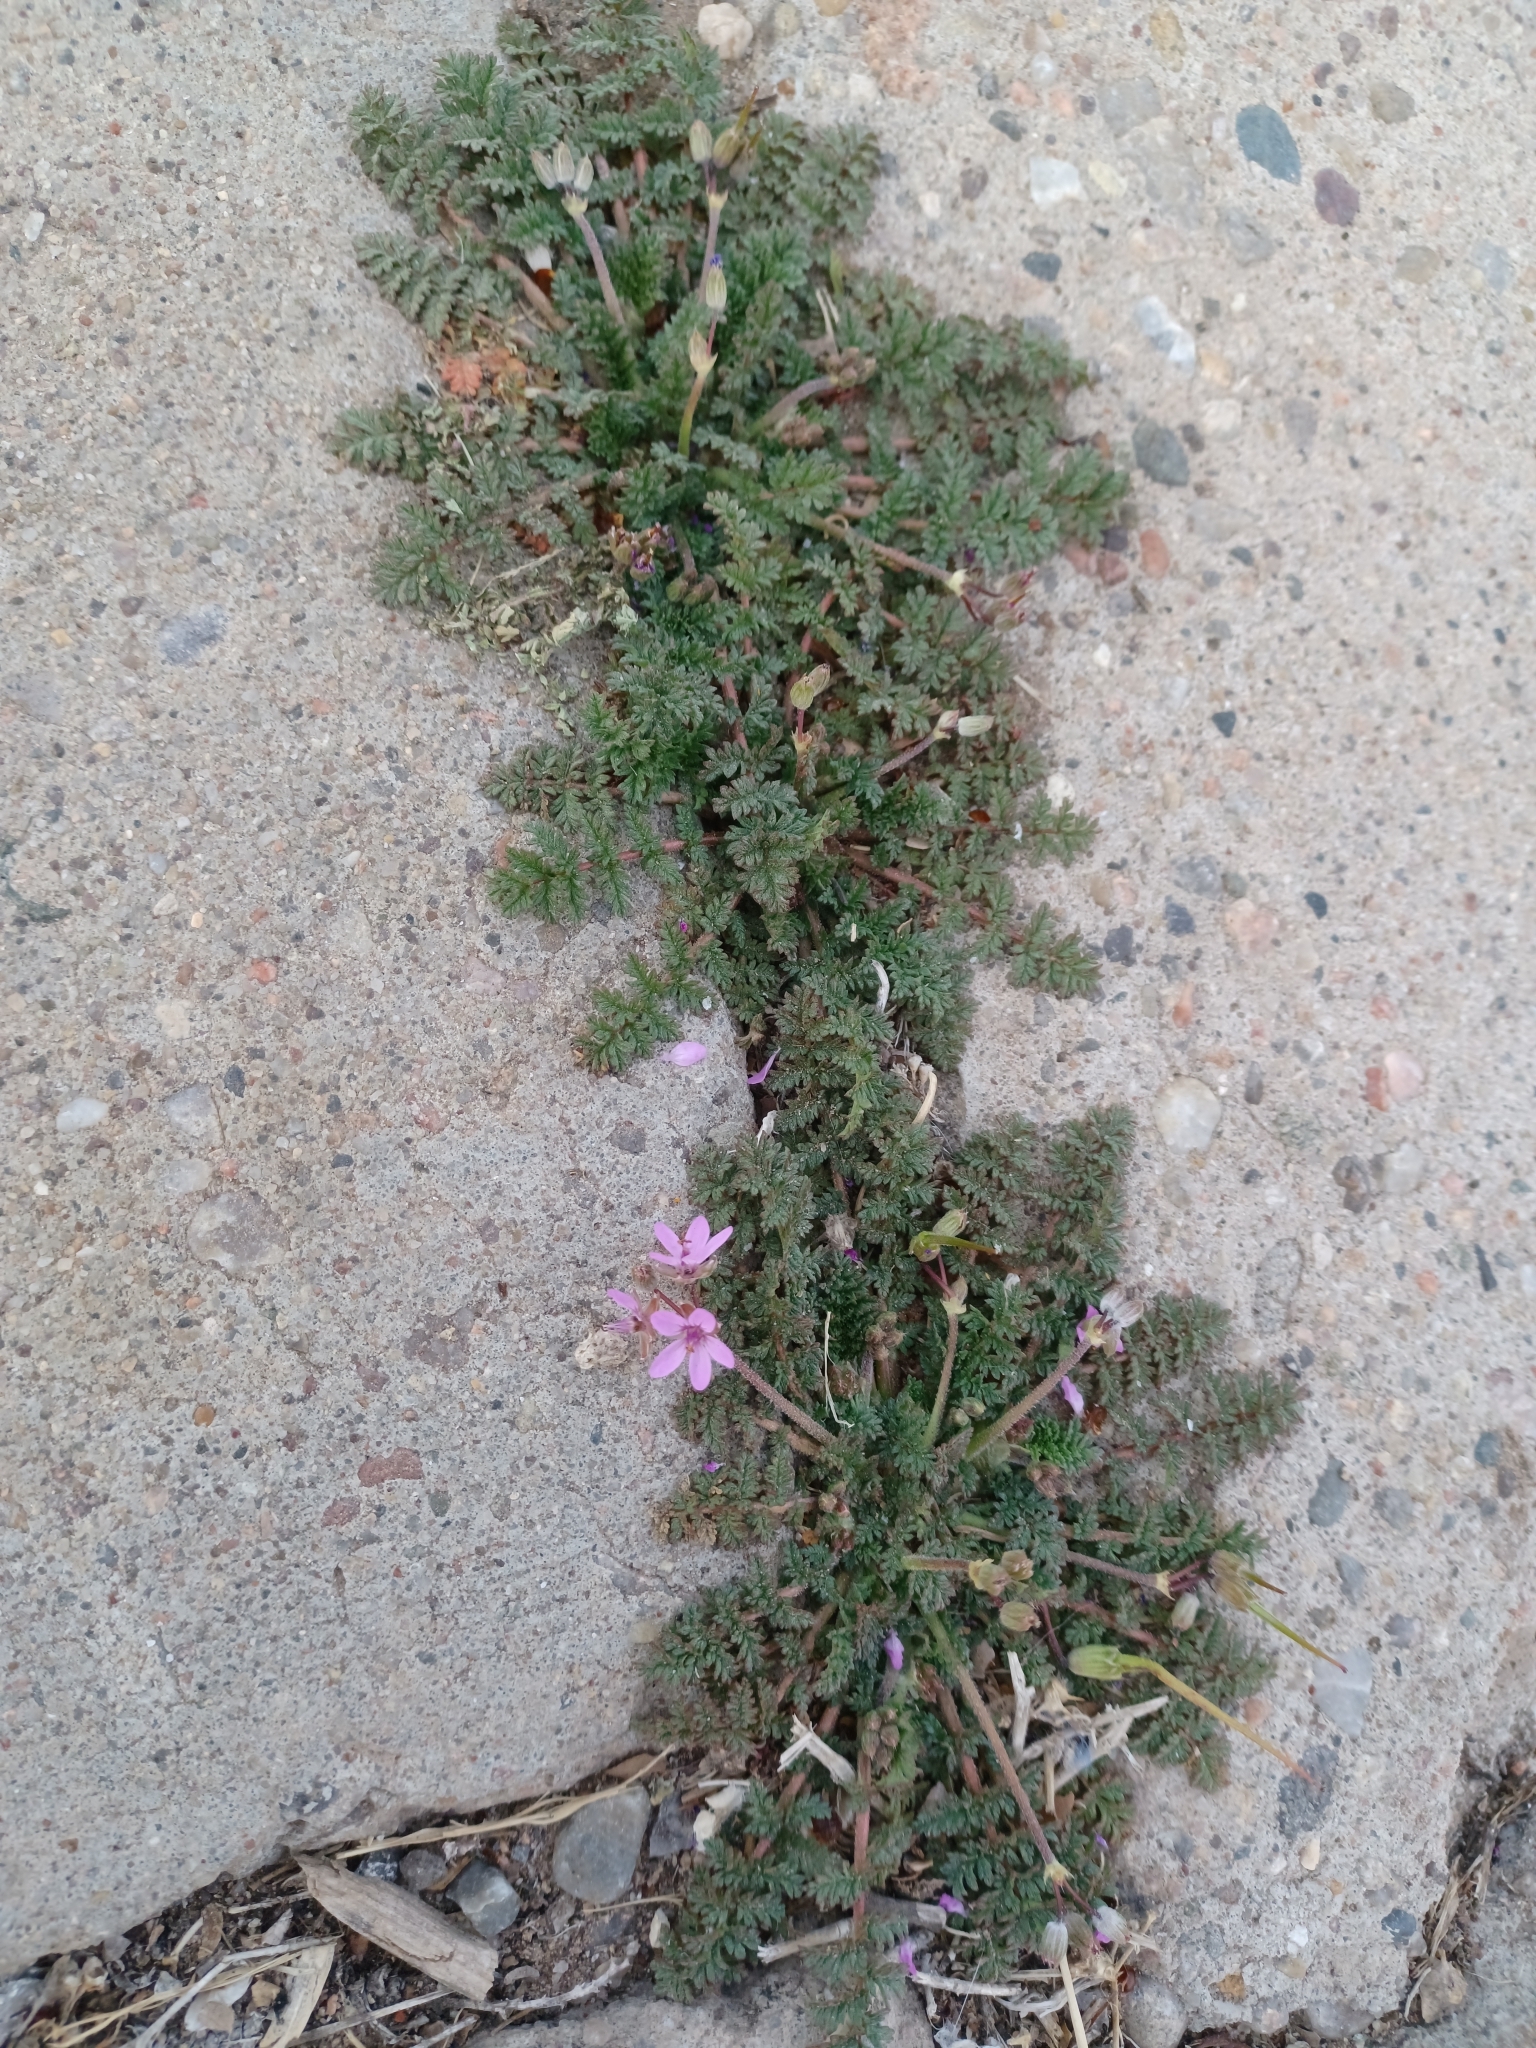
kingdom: Plantae
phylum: Tracheophyta
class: Magnoliopsida
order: Geraniales
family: Geraniaceae
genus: Erodium
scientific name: Erodium cicutarium
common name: Common stork's-bill
